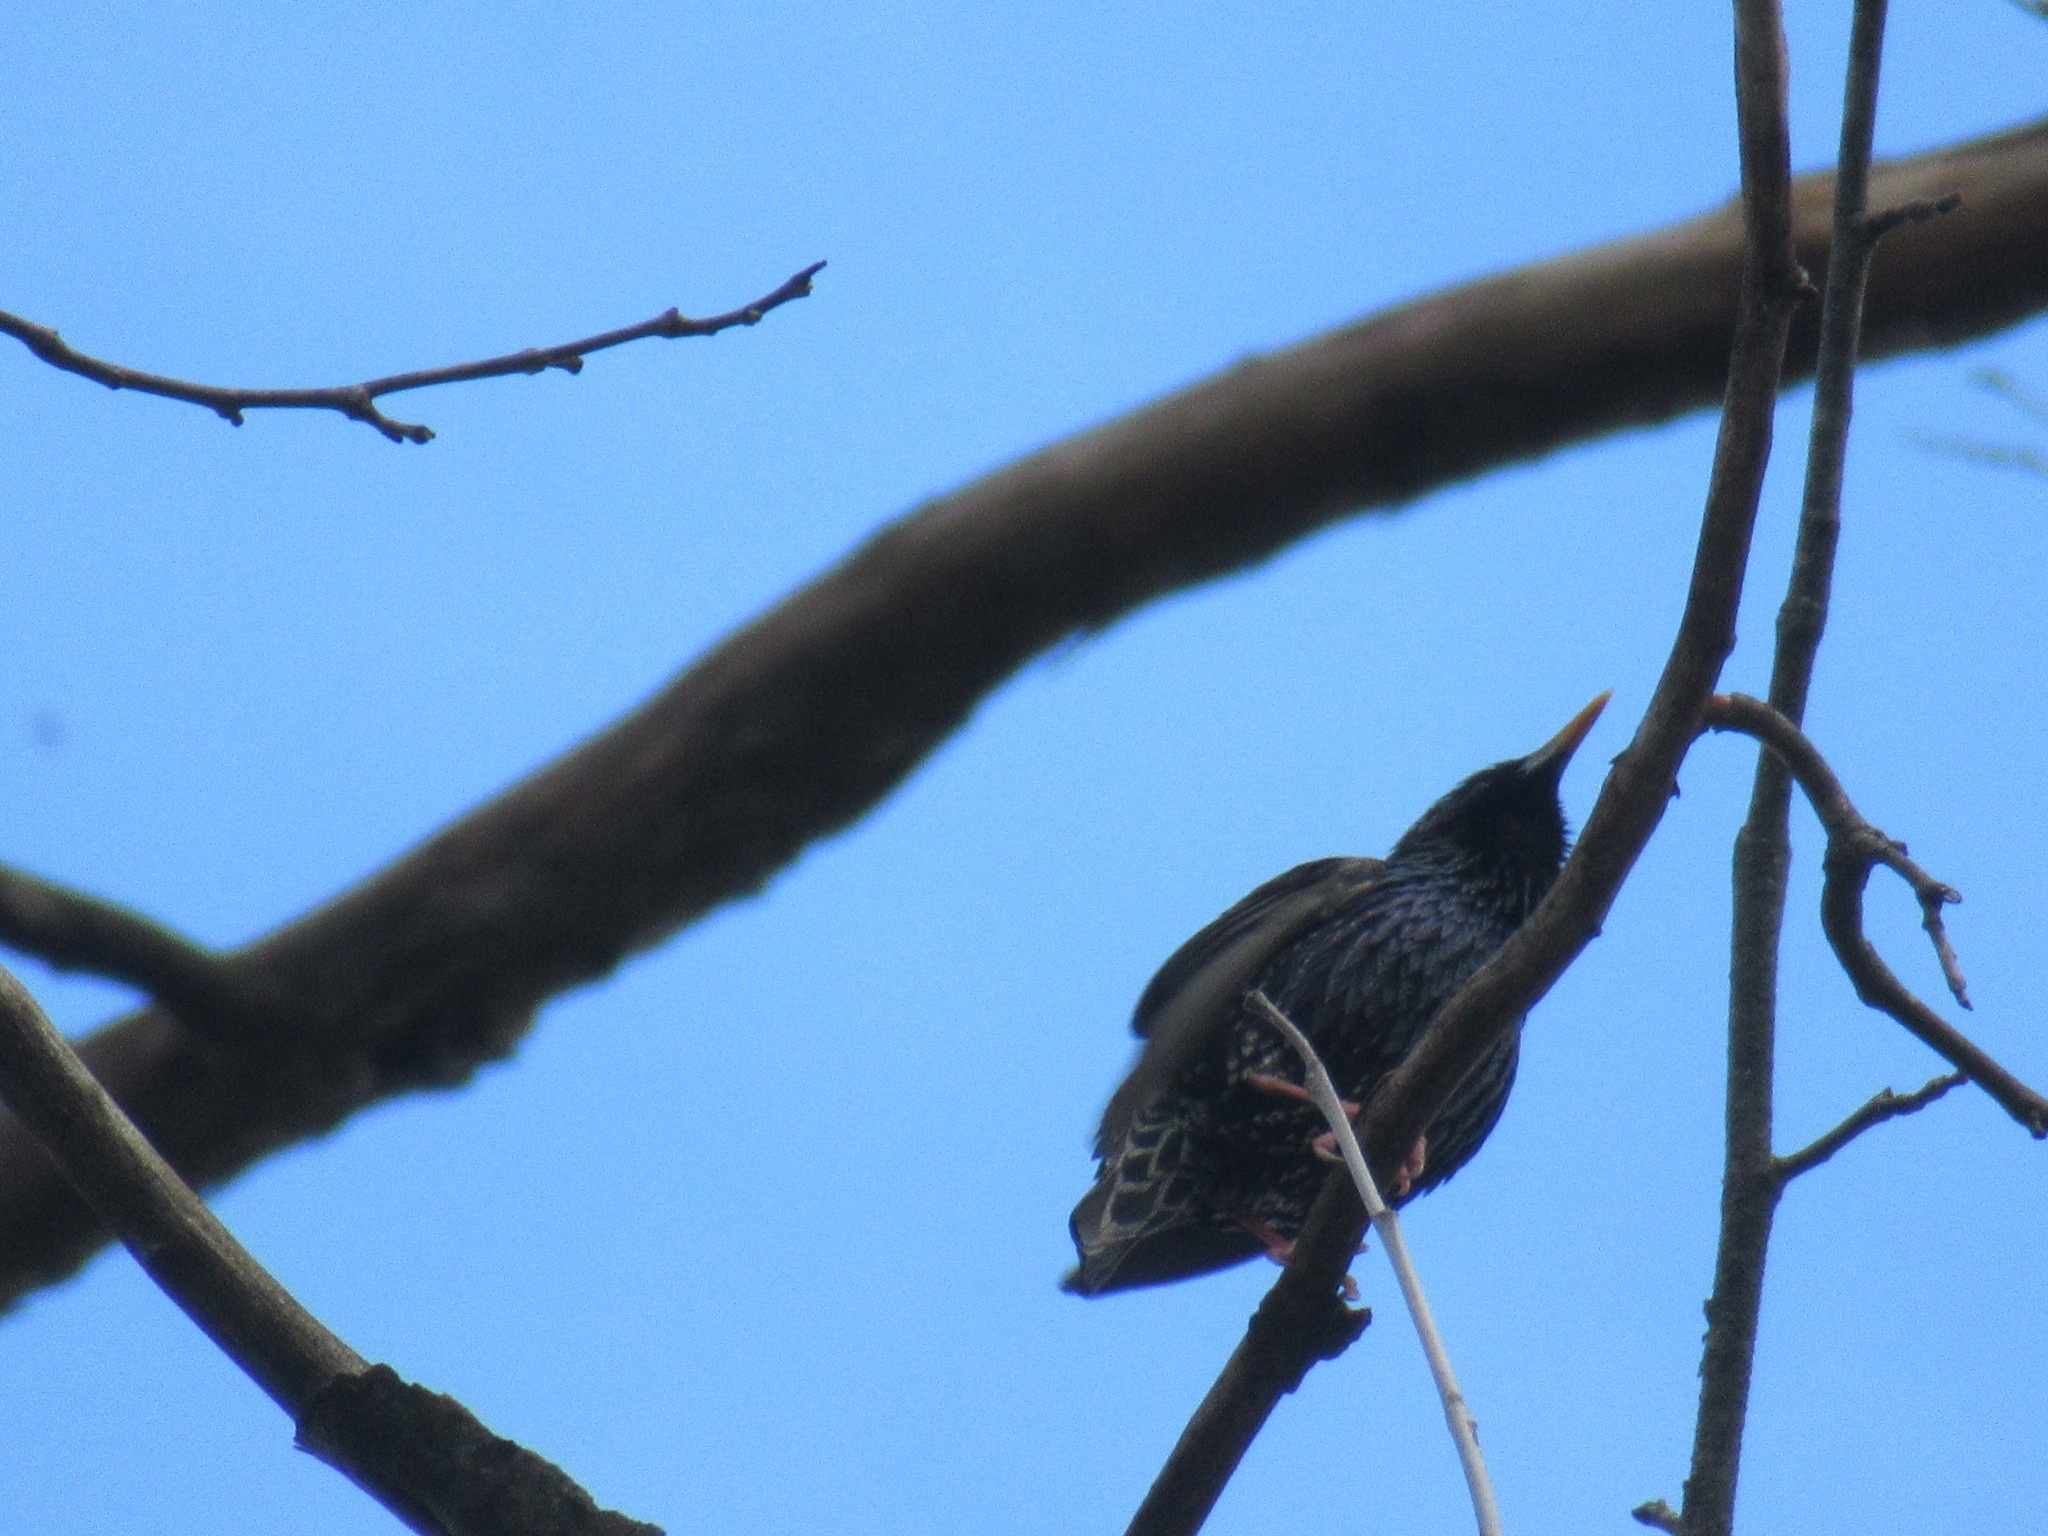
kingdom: Animalia
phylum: Chordata
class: Aves
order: Passeriformes
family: Sturnidae
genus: Sturnus
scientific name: Sturnus vulgaris
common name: Common starling
